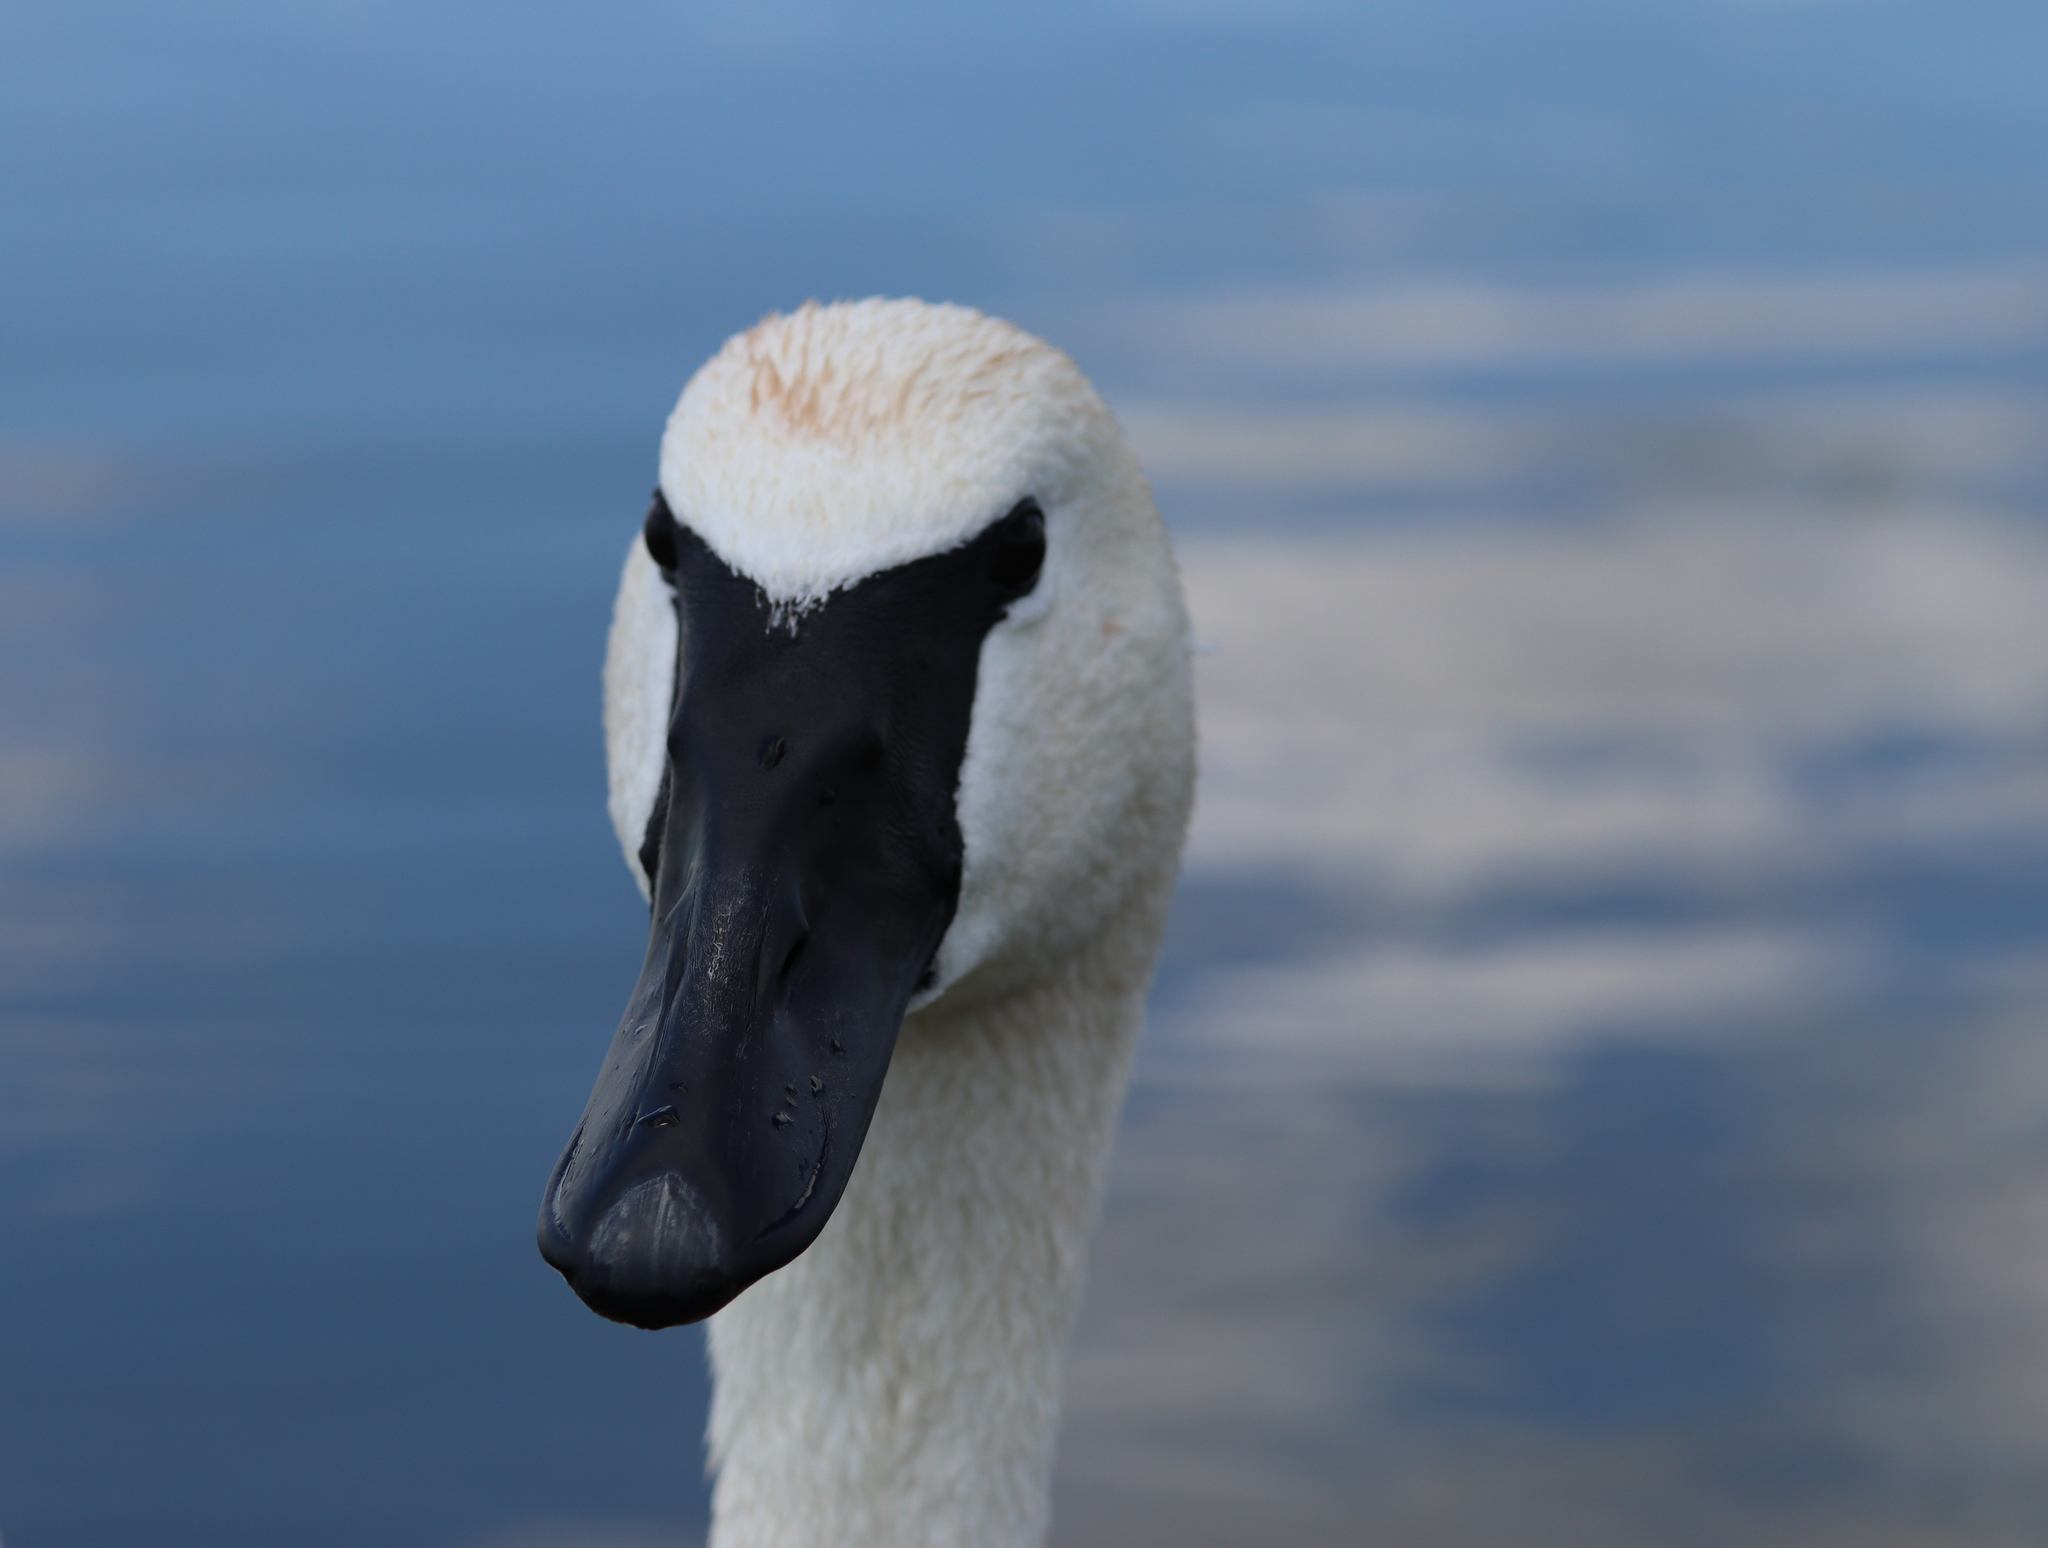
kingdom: Animalia
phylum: Chordata
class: Aves
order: Anseriformes
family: Anatidae
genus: Cygnus
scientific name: Cygnus buccinator
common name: Trumpeter swan
